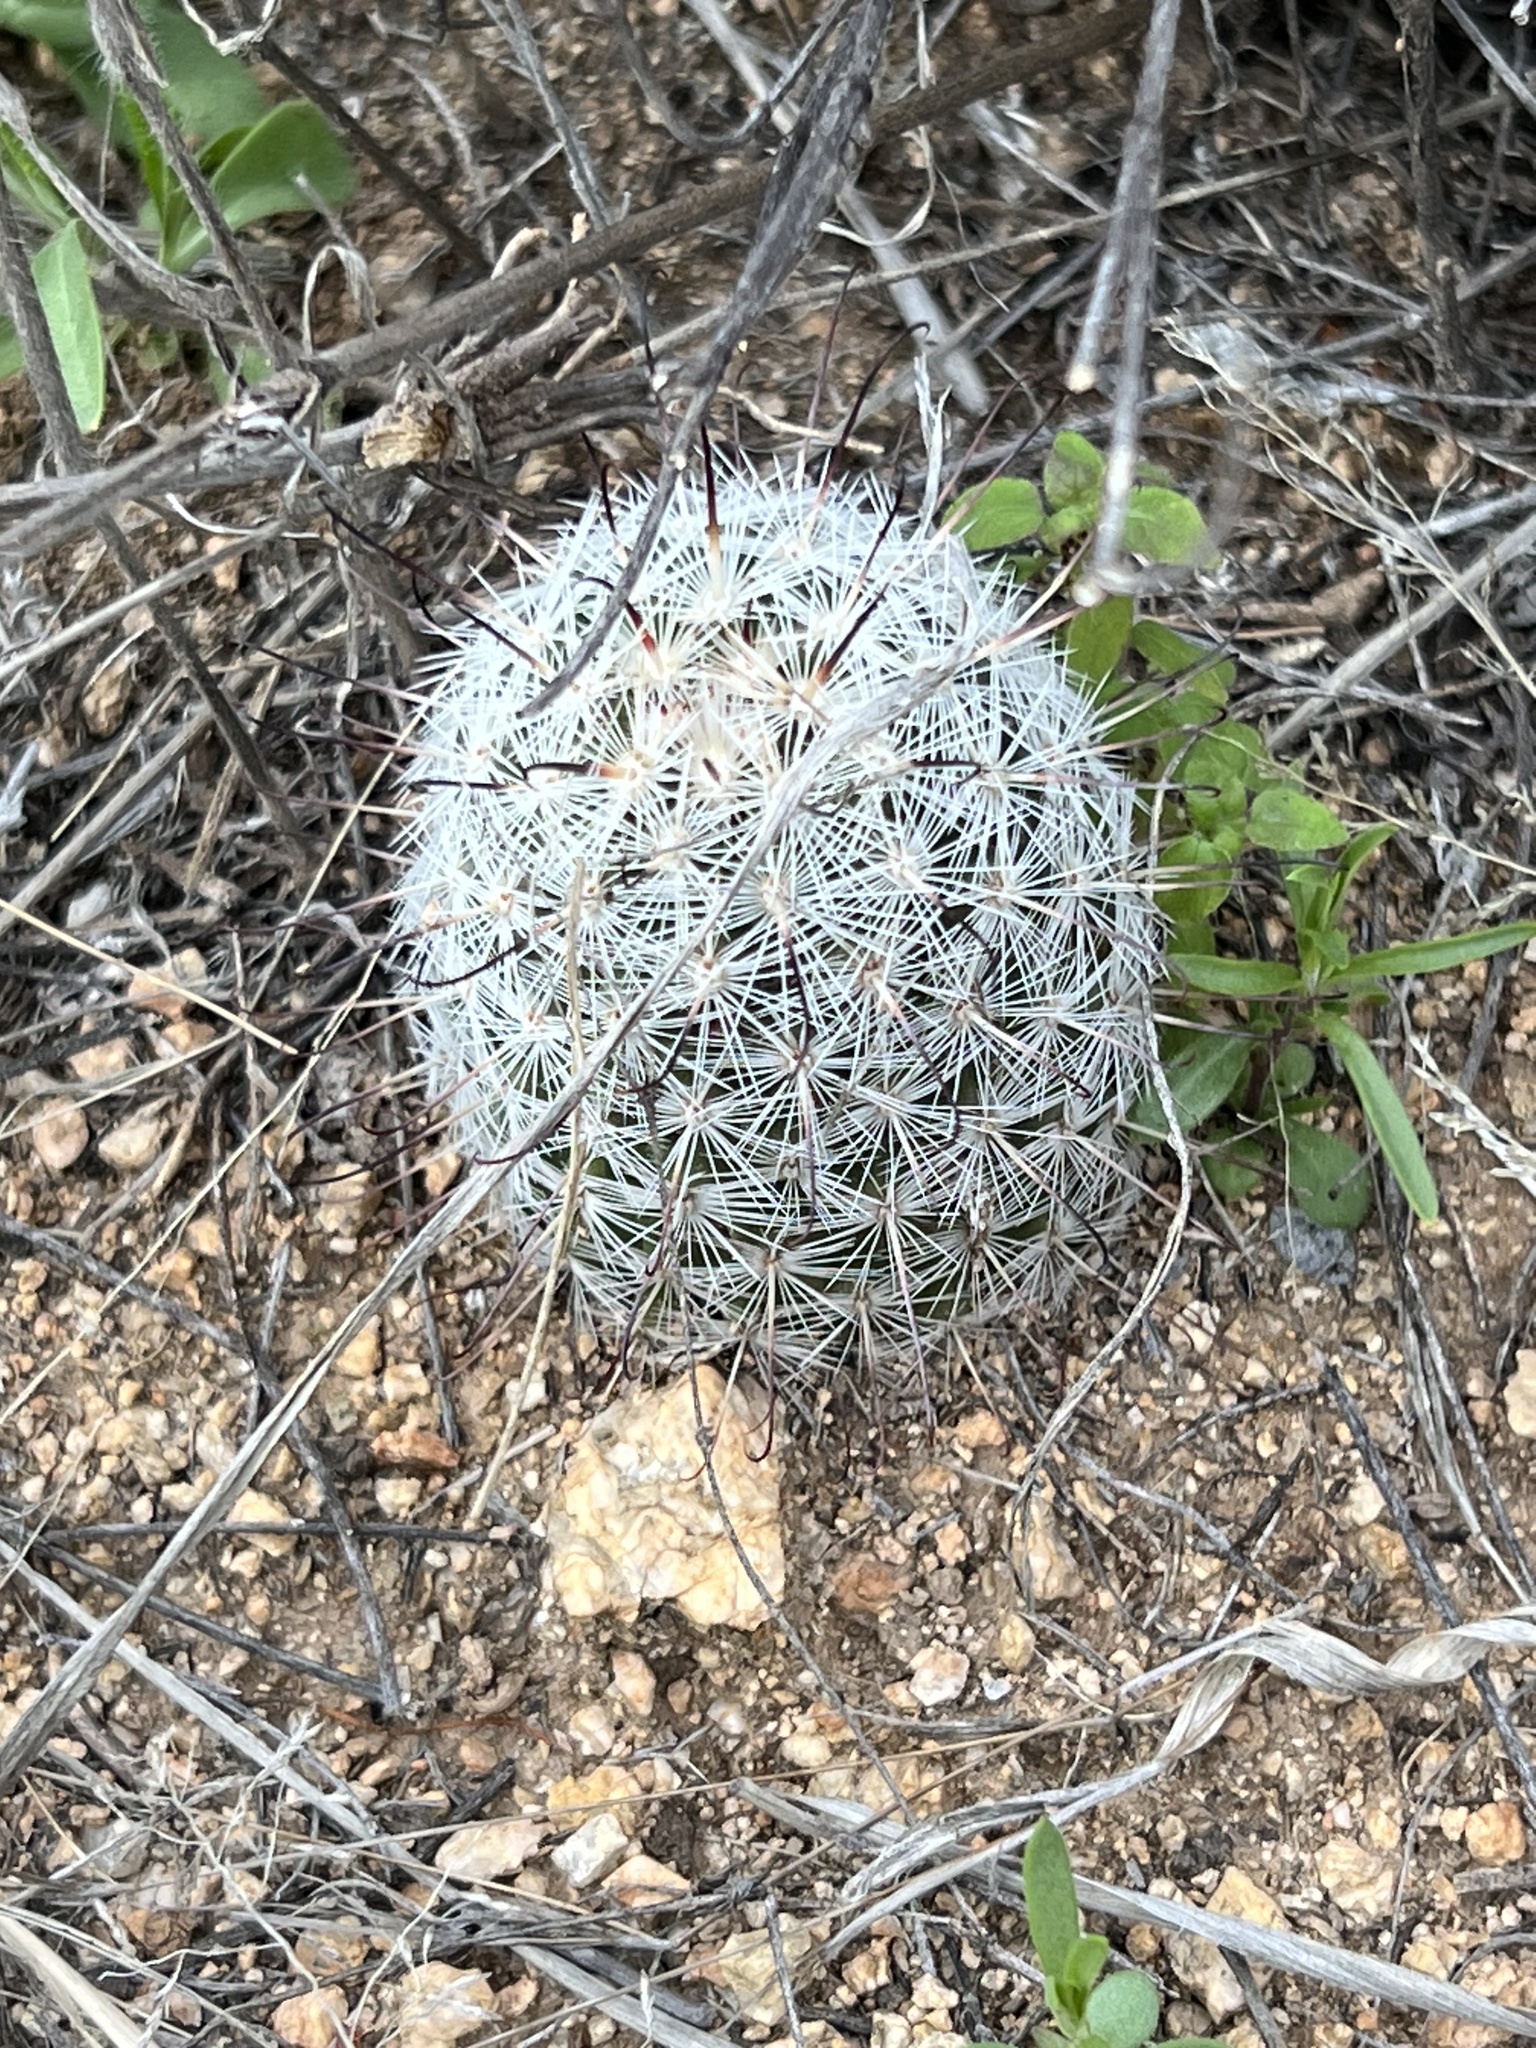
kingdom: Plantae
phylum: Tracheophyta
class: Magnoliopsida
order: Caryophyllales
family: Cactaceae
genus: Cochemiea
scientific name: Cochemiea grahamii
